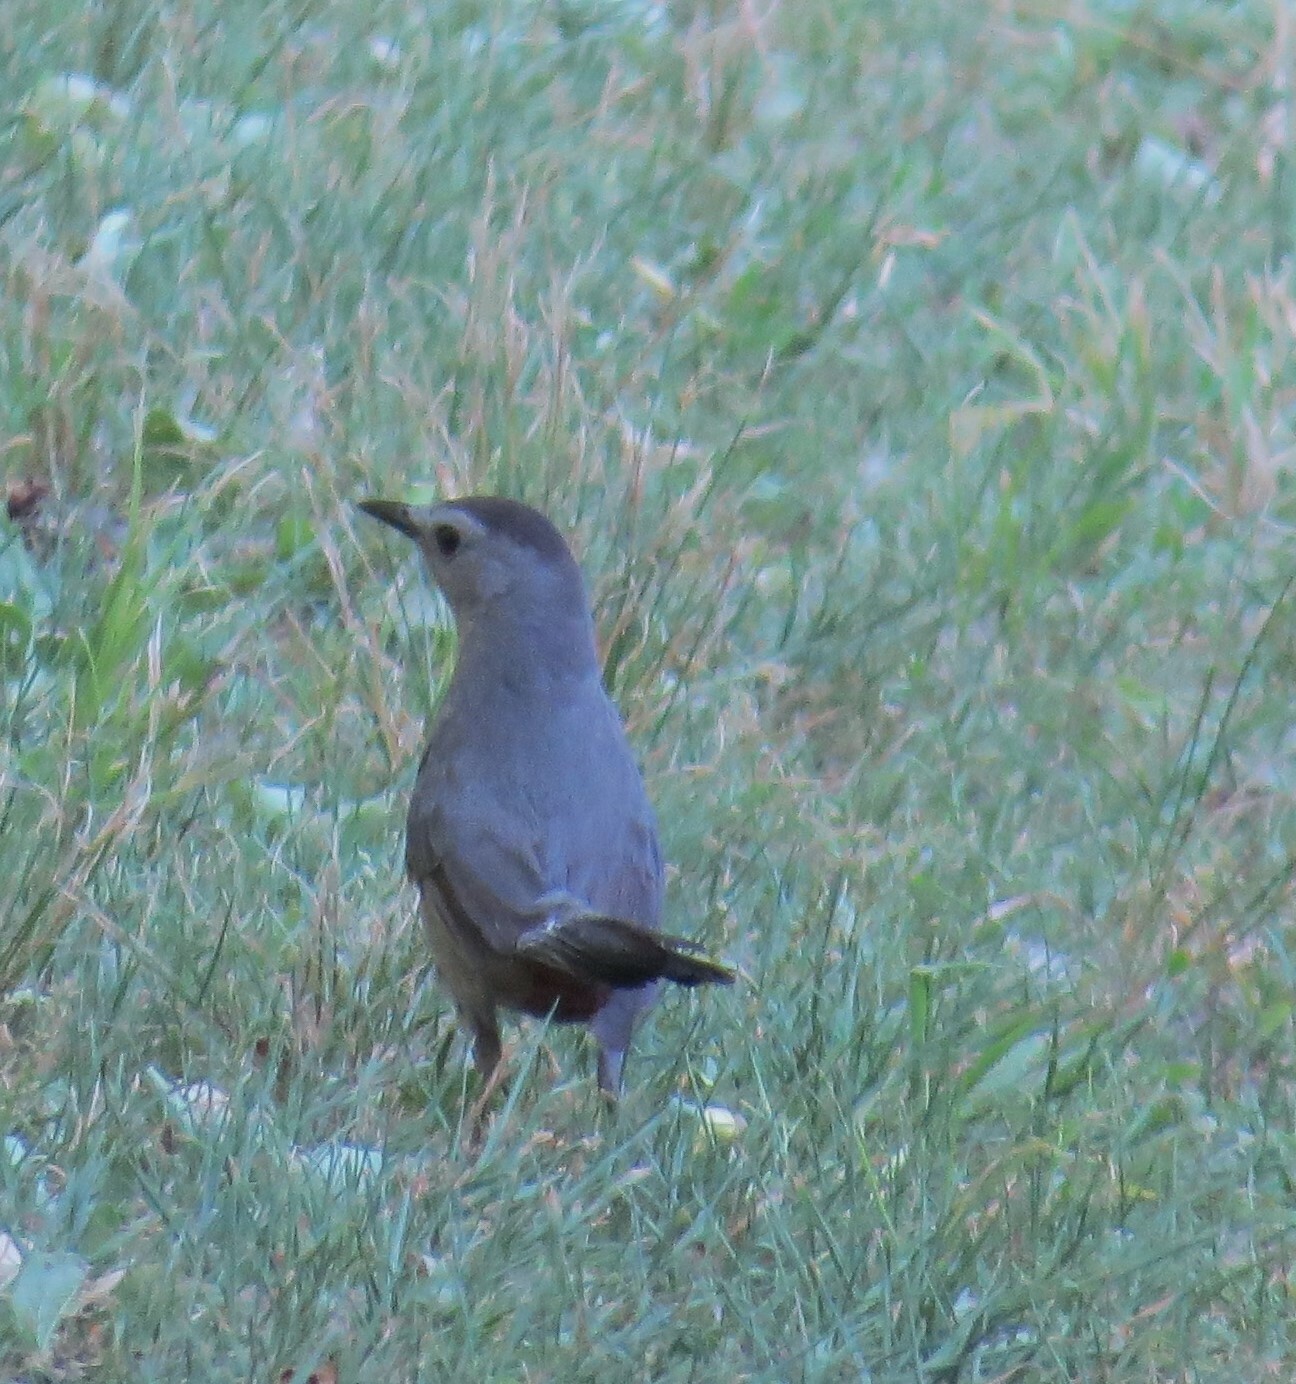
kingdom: Animalia
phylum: Chordata
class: Aves
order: Passeriformes
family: Mimidae
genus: Dumetella
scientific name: Dumetella carolinensis
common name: Gray catbird
